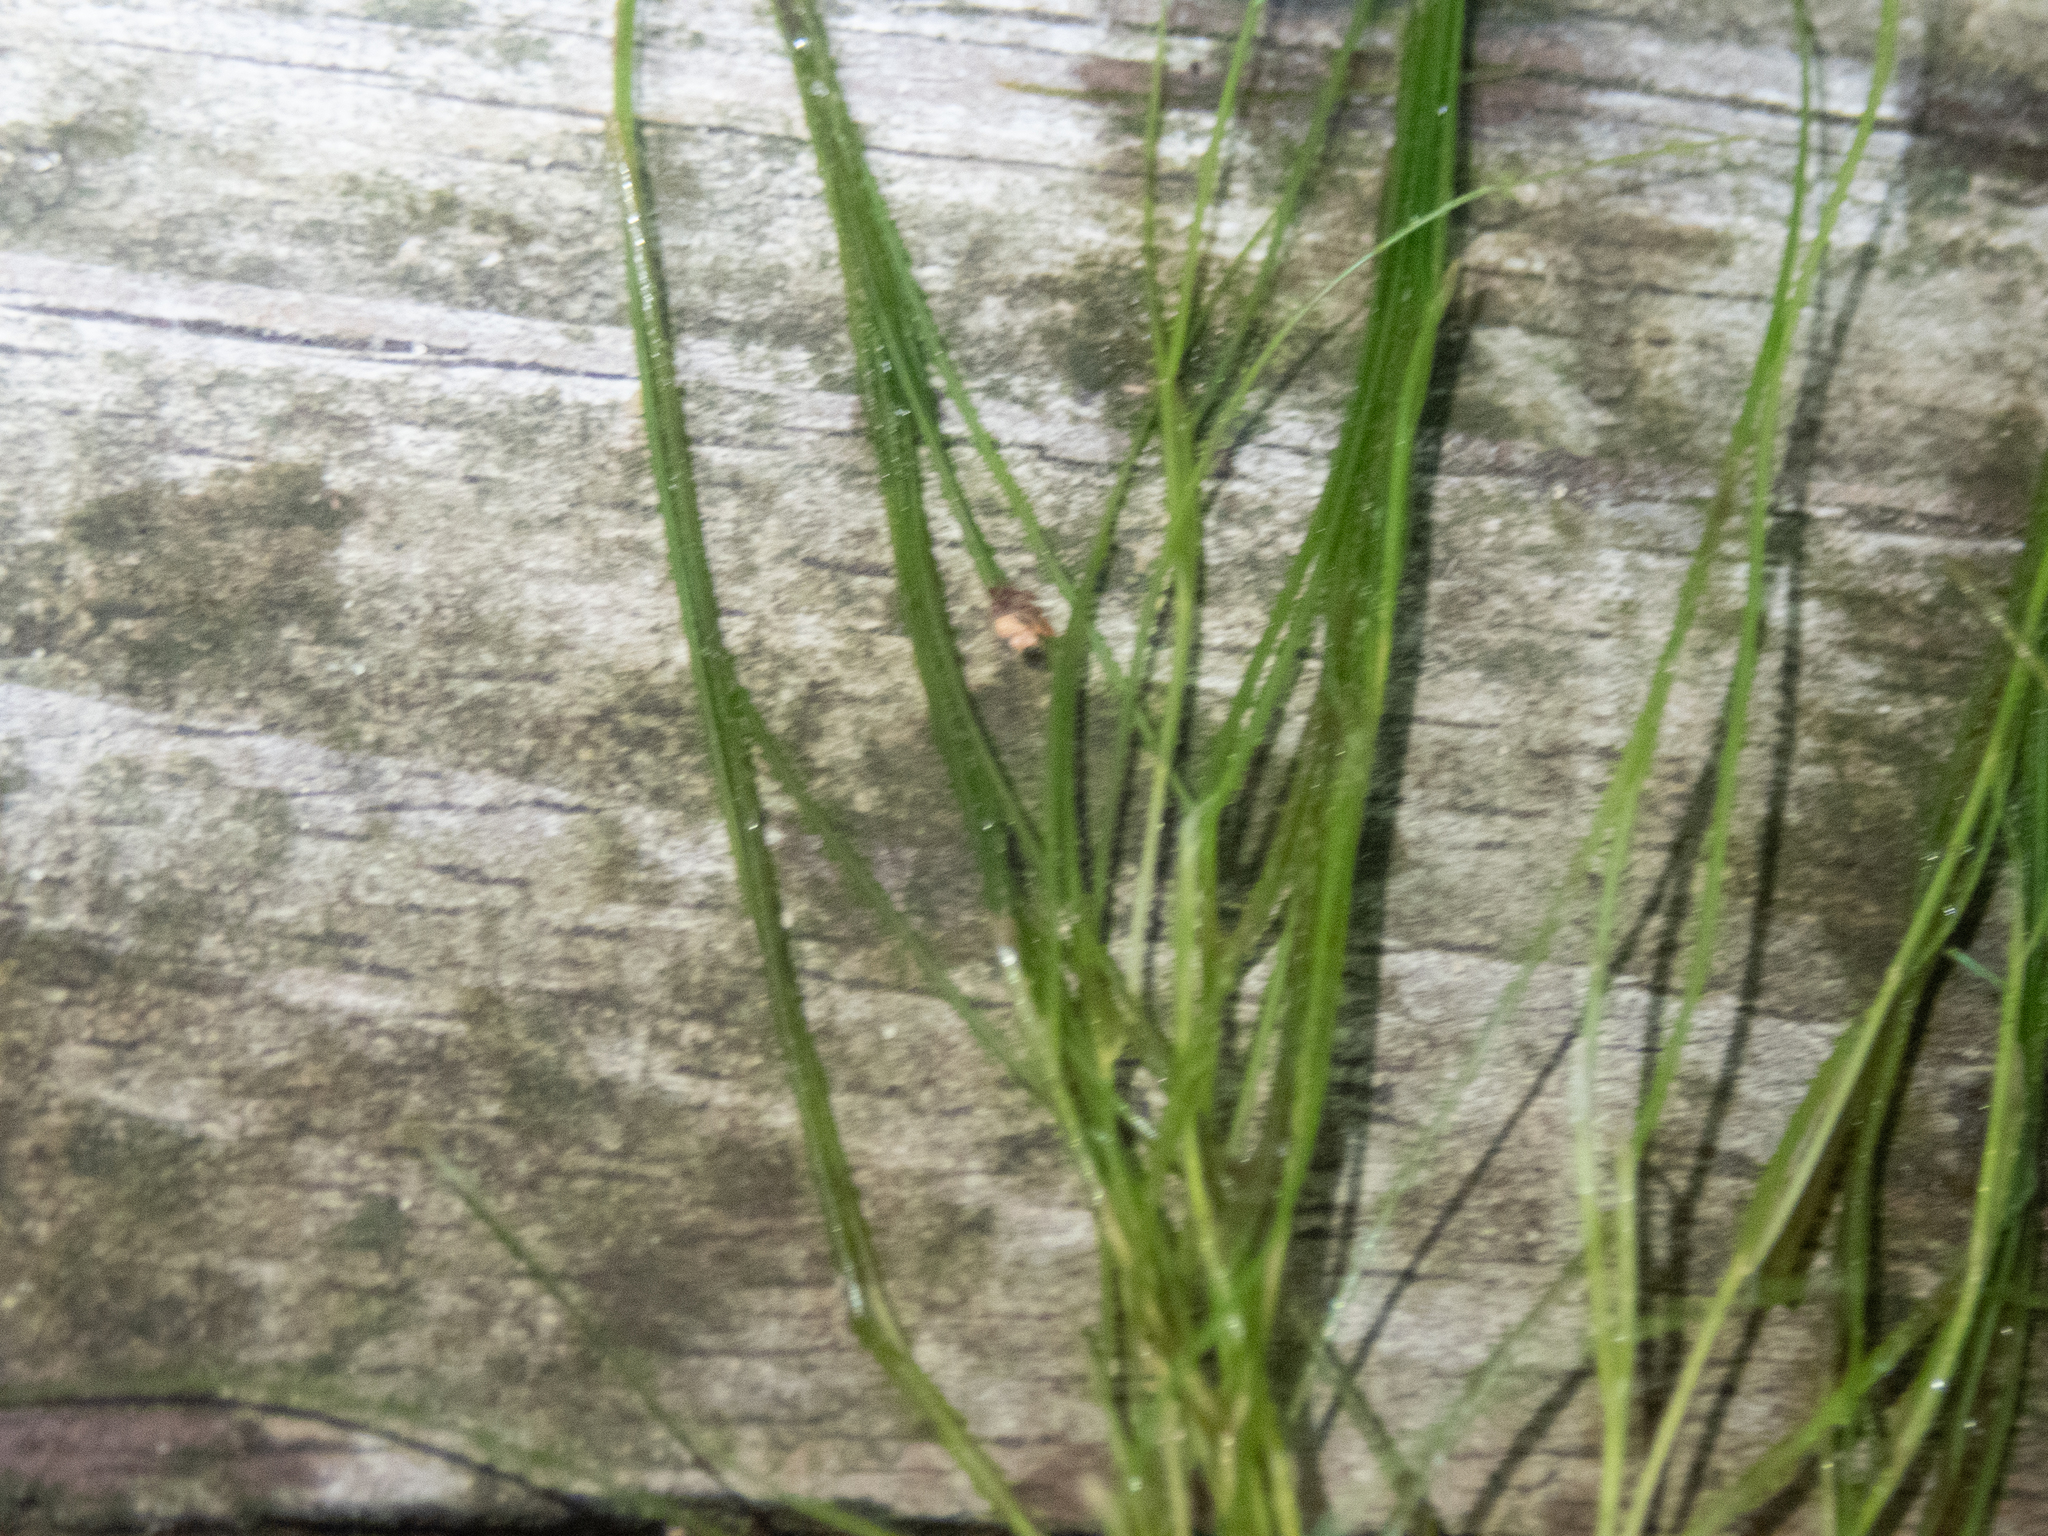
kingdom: Plantae
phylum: Tracheophyta
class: Liliopsida
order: Alismatales
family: Potamogetonaceae
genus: Stuckenia
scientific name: Stuckenia pectinata
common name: Sago pondweed
